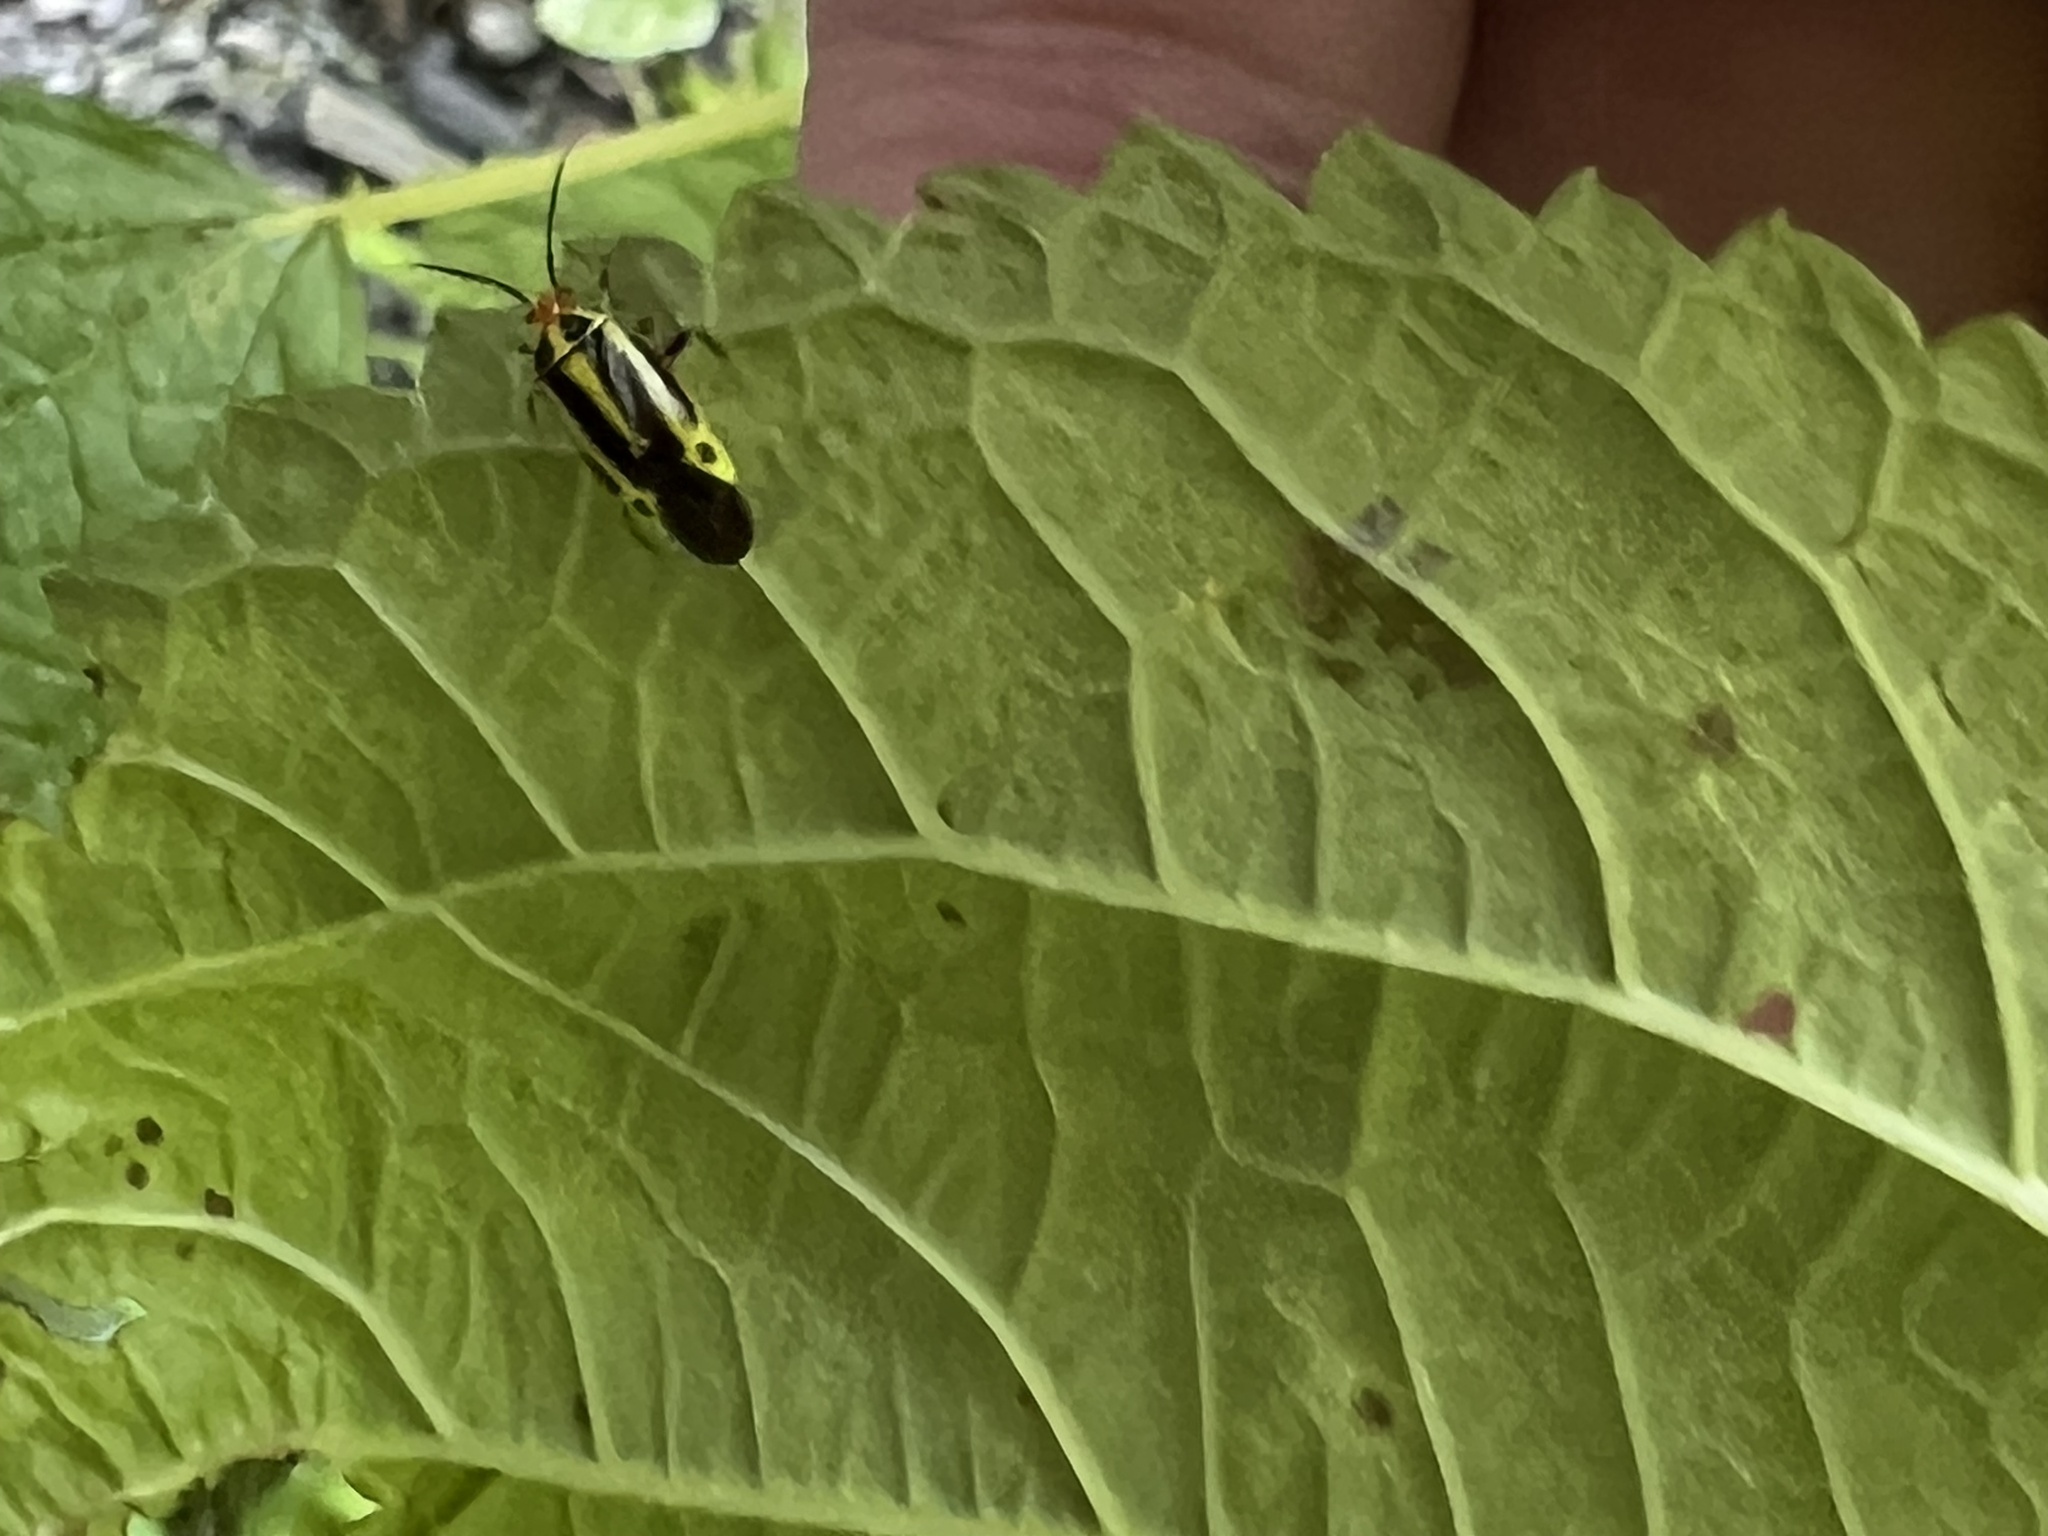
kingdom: Animalia
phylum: Arthropoda
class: Insecta
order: Hemiptera
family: Miridae
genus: Poecilocapsus
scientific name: Poecilocapsus lineatus
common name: Four-lined plant bug
